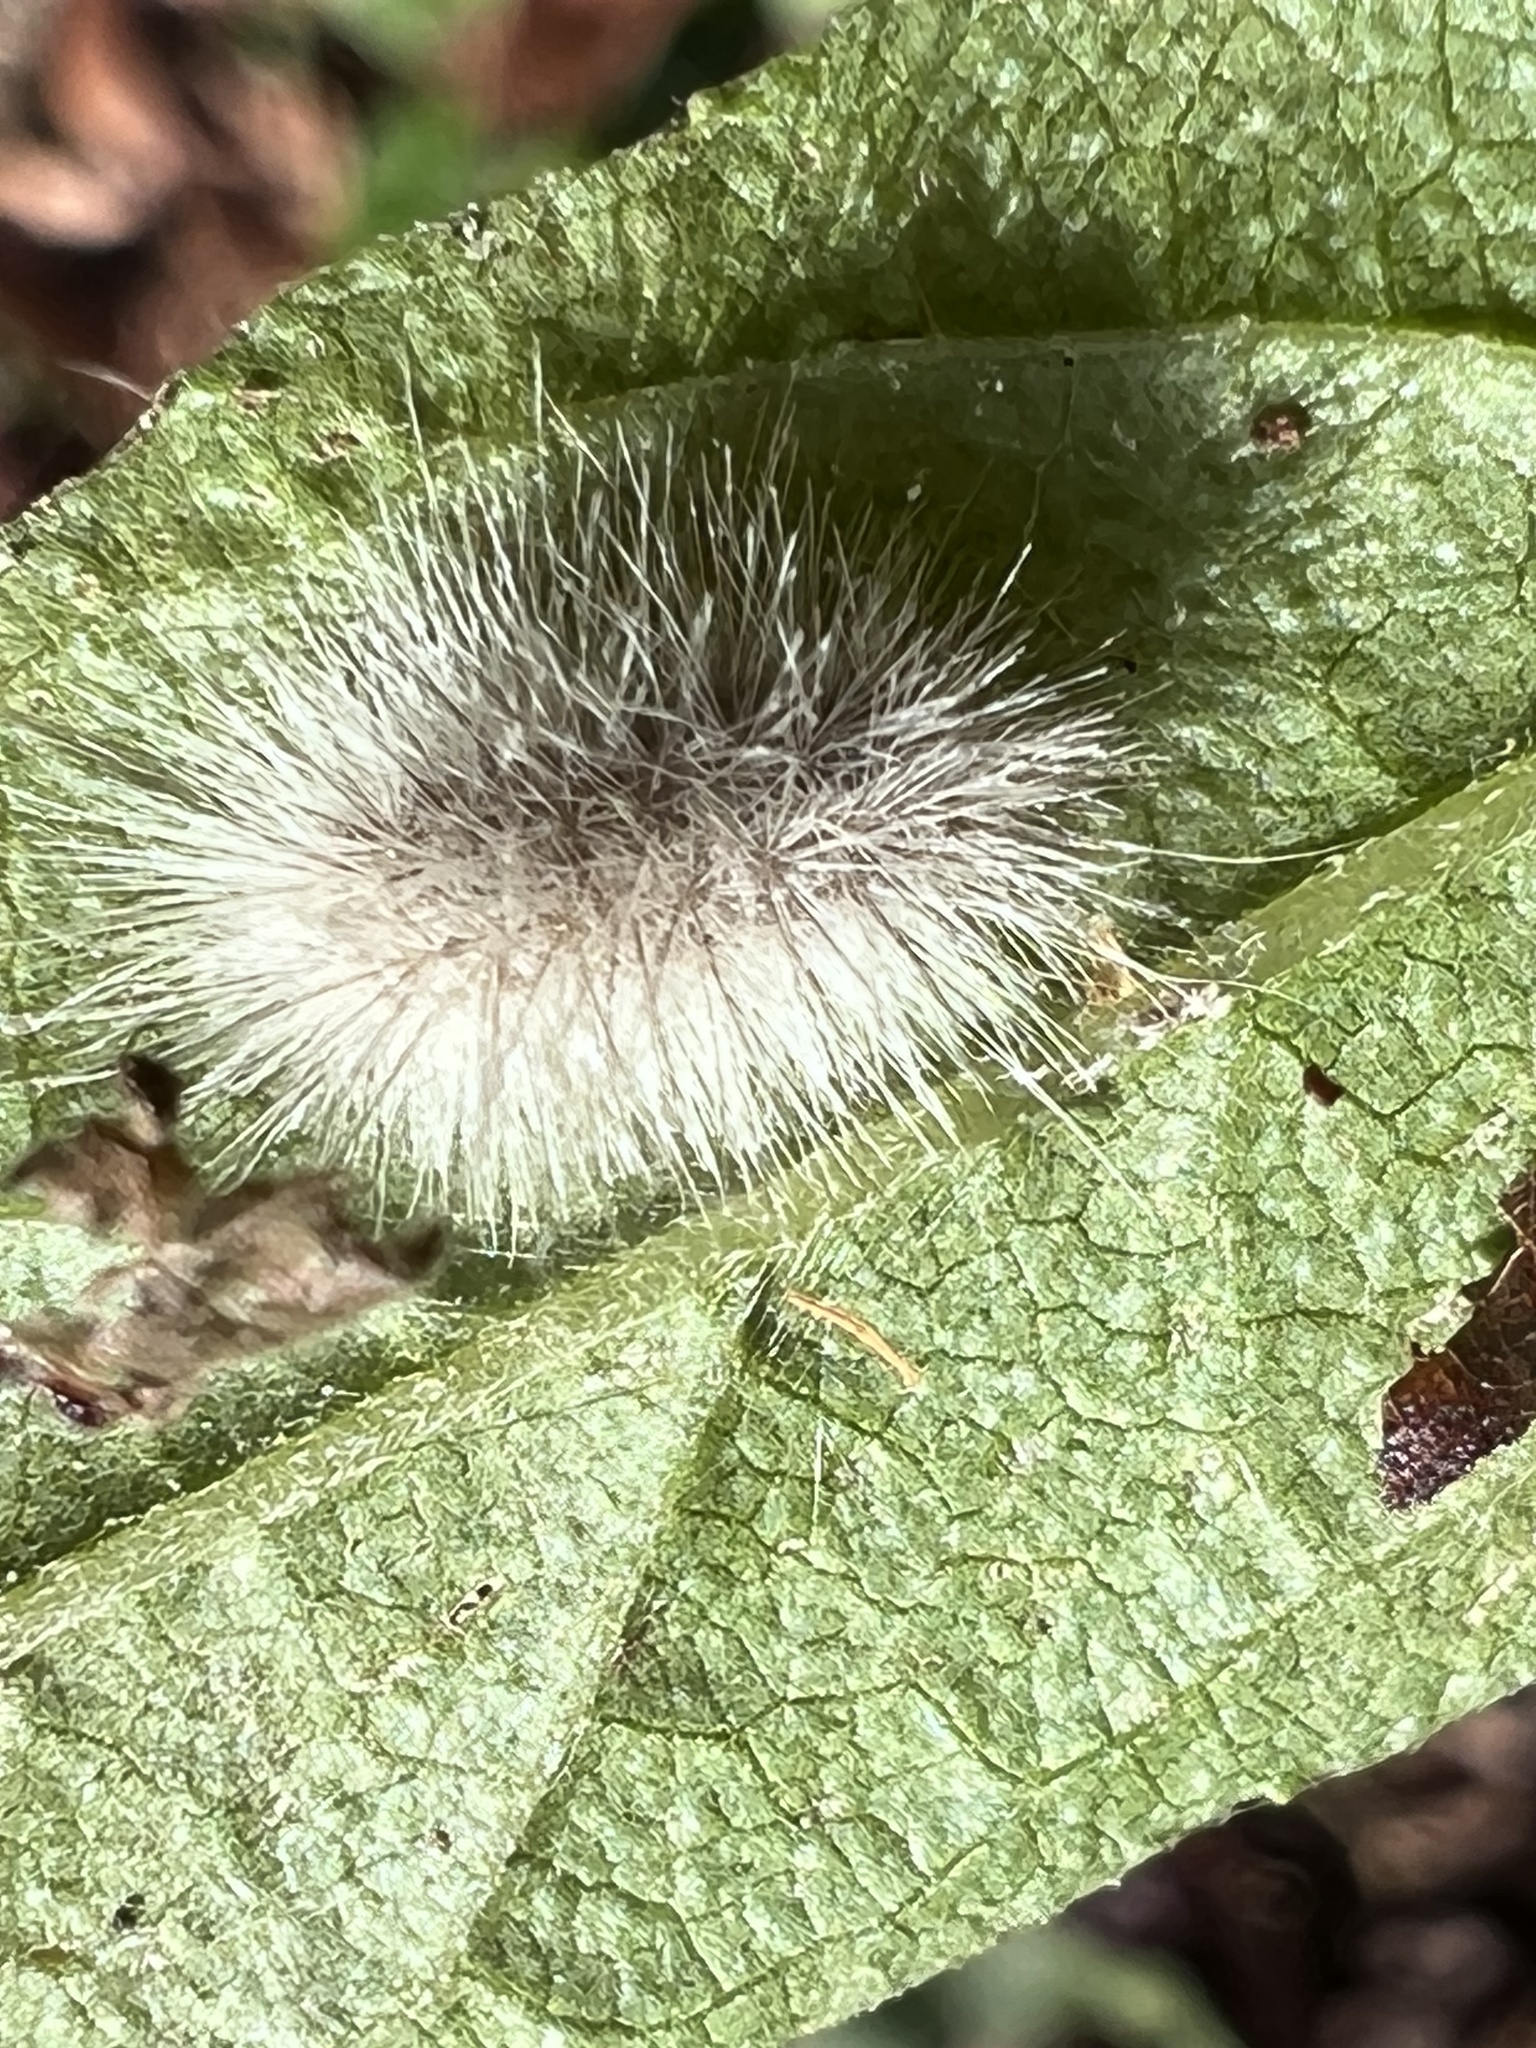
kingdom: Animalia
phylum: Arthropoda
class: Insecta
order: Lepidoptera
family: Erebidae
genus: Cycnia
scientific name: Cycnia tenera
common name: Delicate cycnia moth
